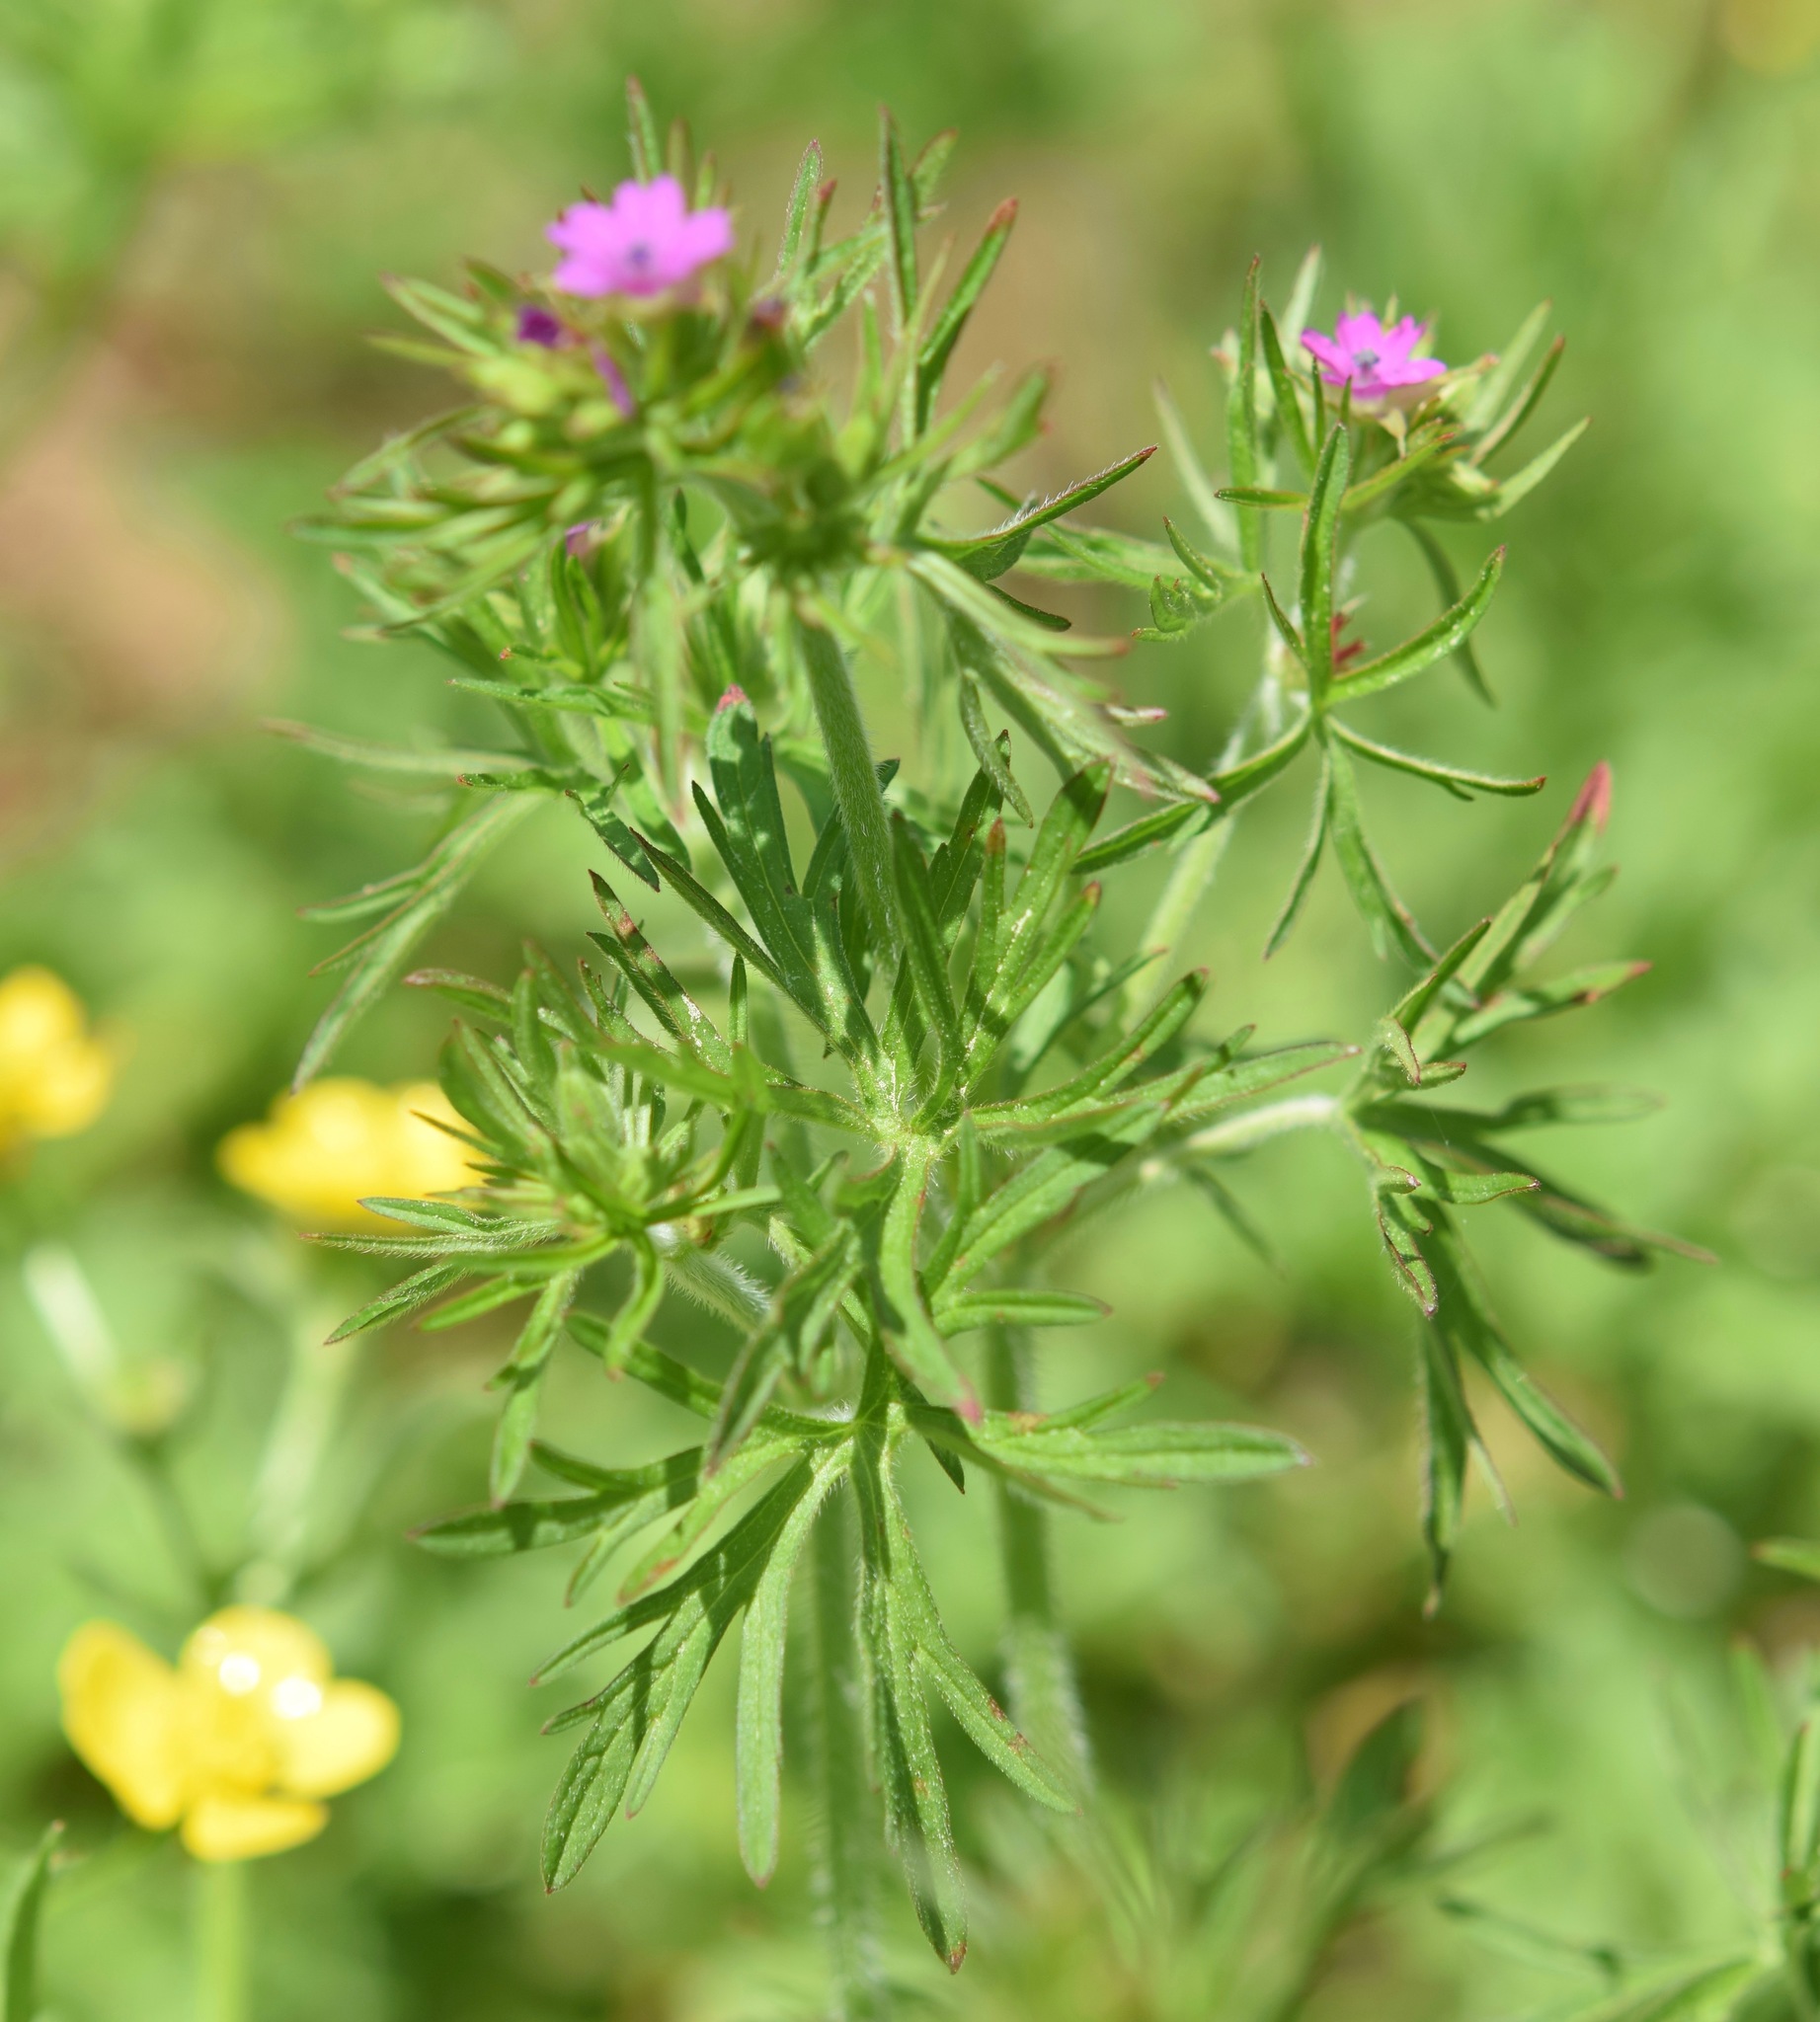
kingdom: Plantae
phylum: Tracheophyta
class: Magnoliopsida
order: Geraniales
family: Geraniaceae
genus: Geranium
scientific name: Geranium dissectum
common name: Cut-leaved crane's-bill
